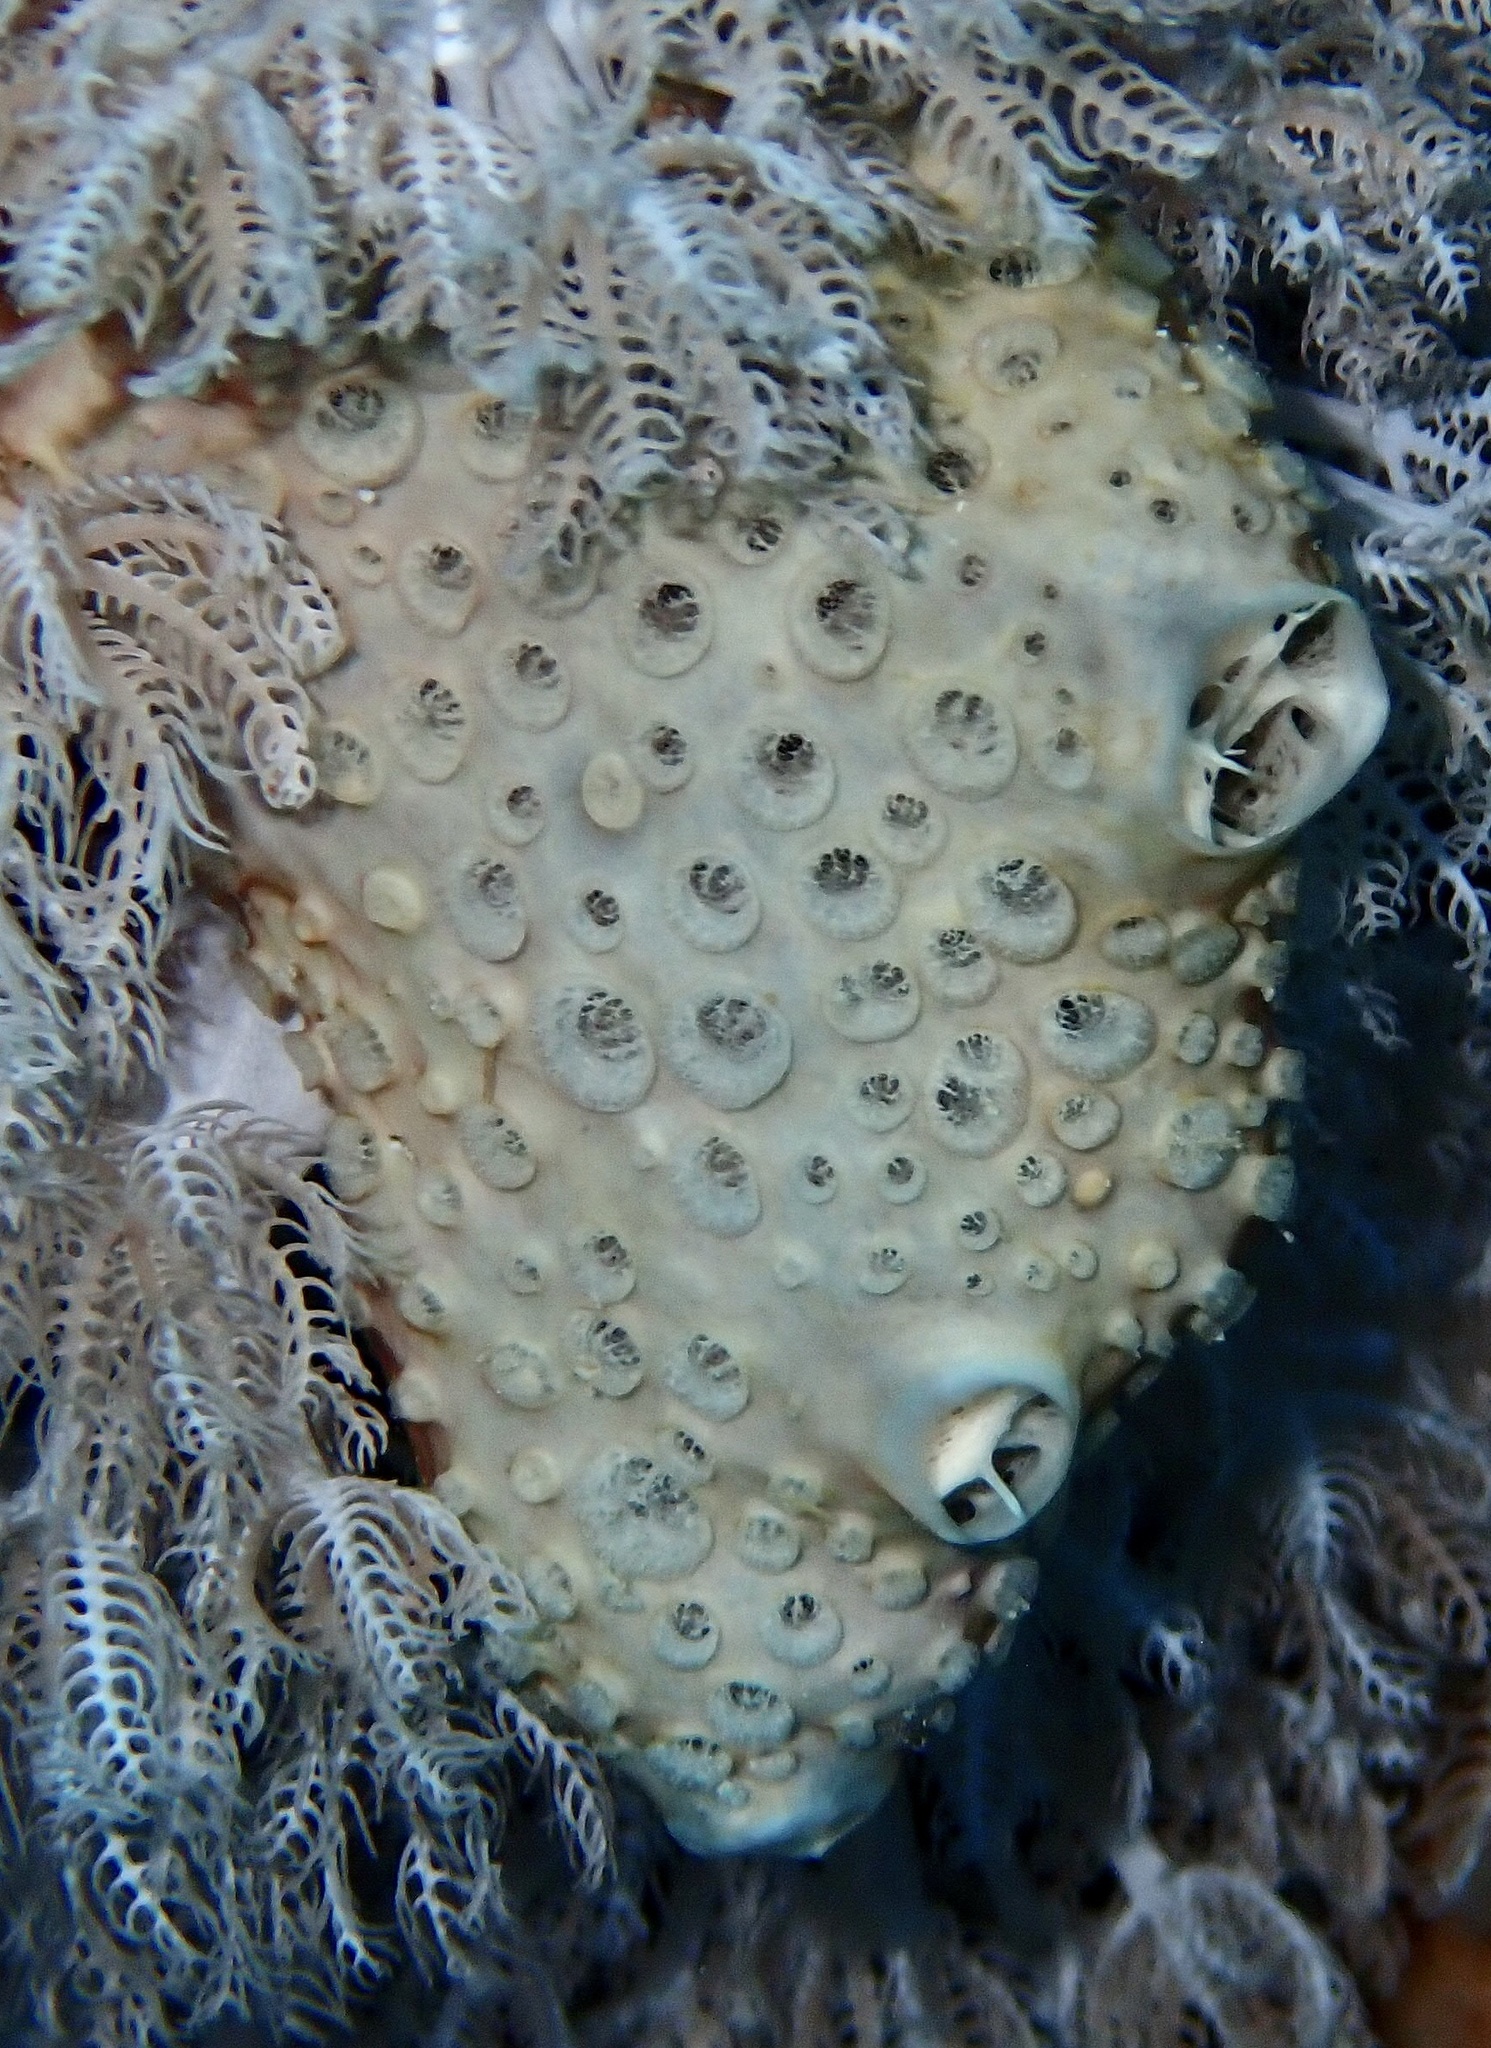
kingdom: Animalia
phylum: Porifera
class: Demospongiae
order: Poecilosclerida
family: Crellidae
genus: Crella
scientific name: Crella cyathophora
